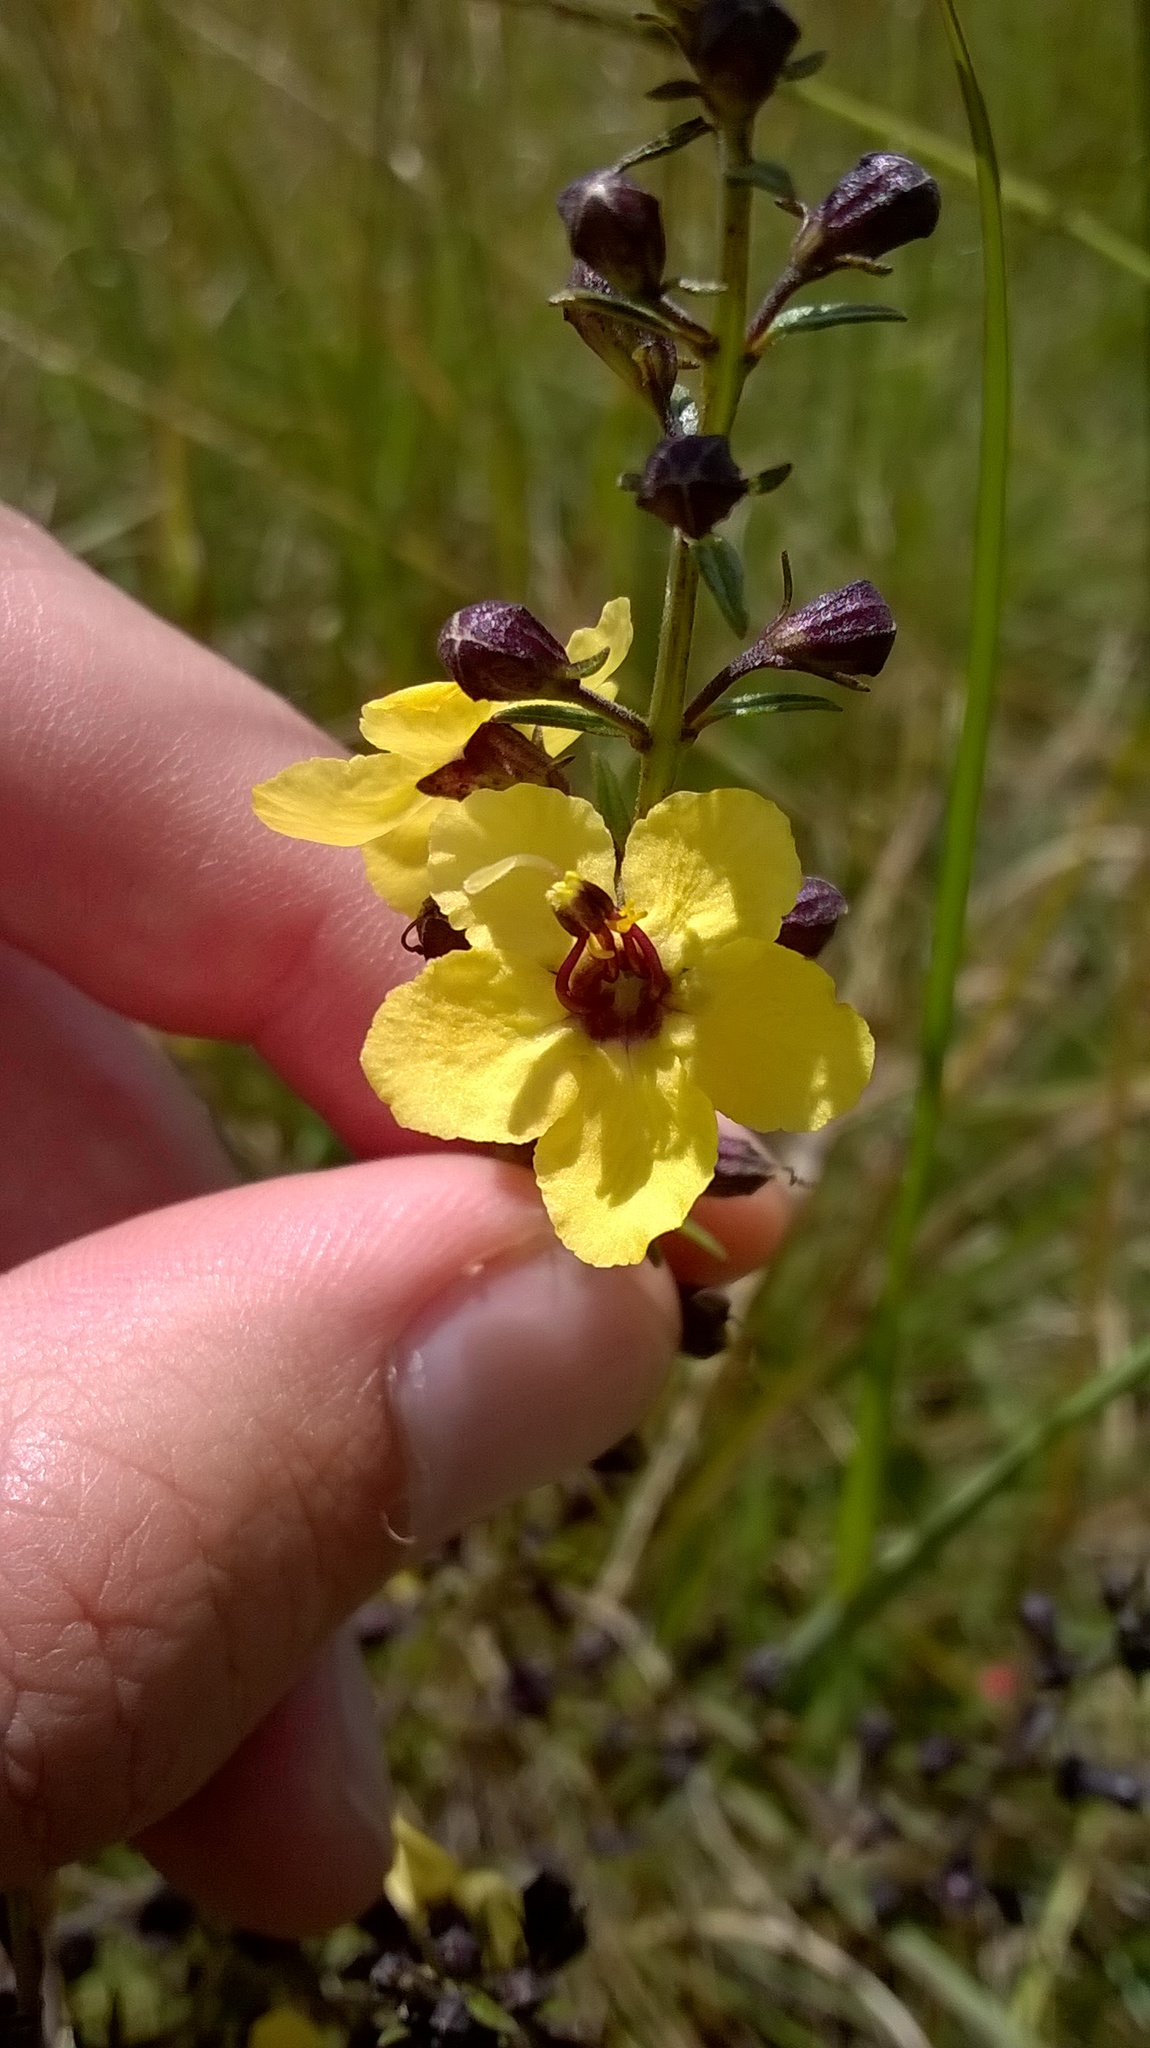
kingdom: Plantae
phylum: Tracheophyta
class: Magnoliopsida
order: Lamiales
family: Orobanchaceae
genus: Sopubia
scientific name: Sopubia eminii
